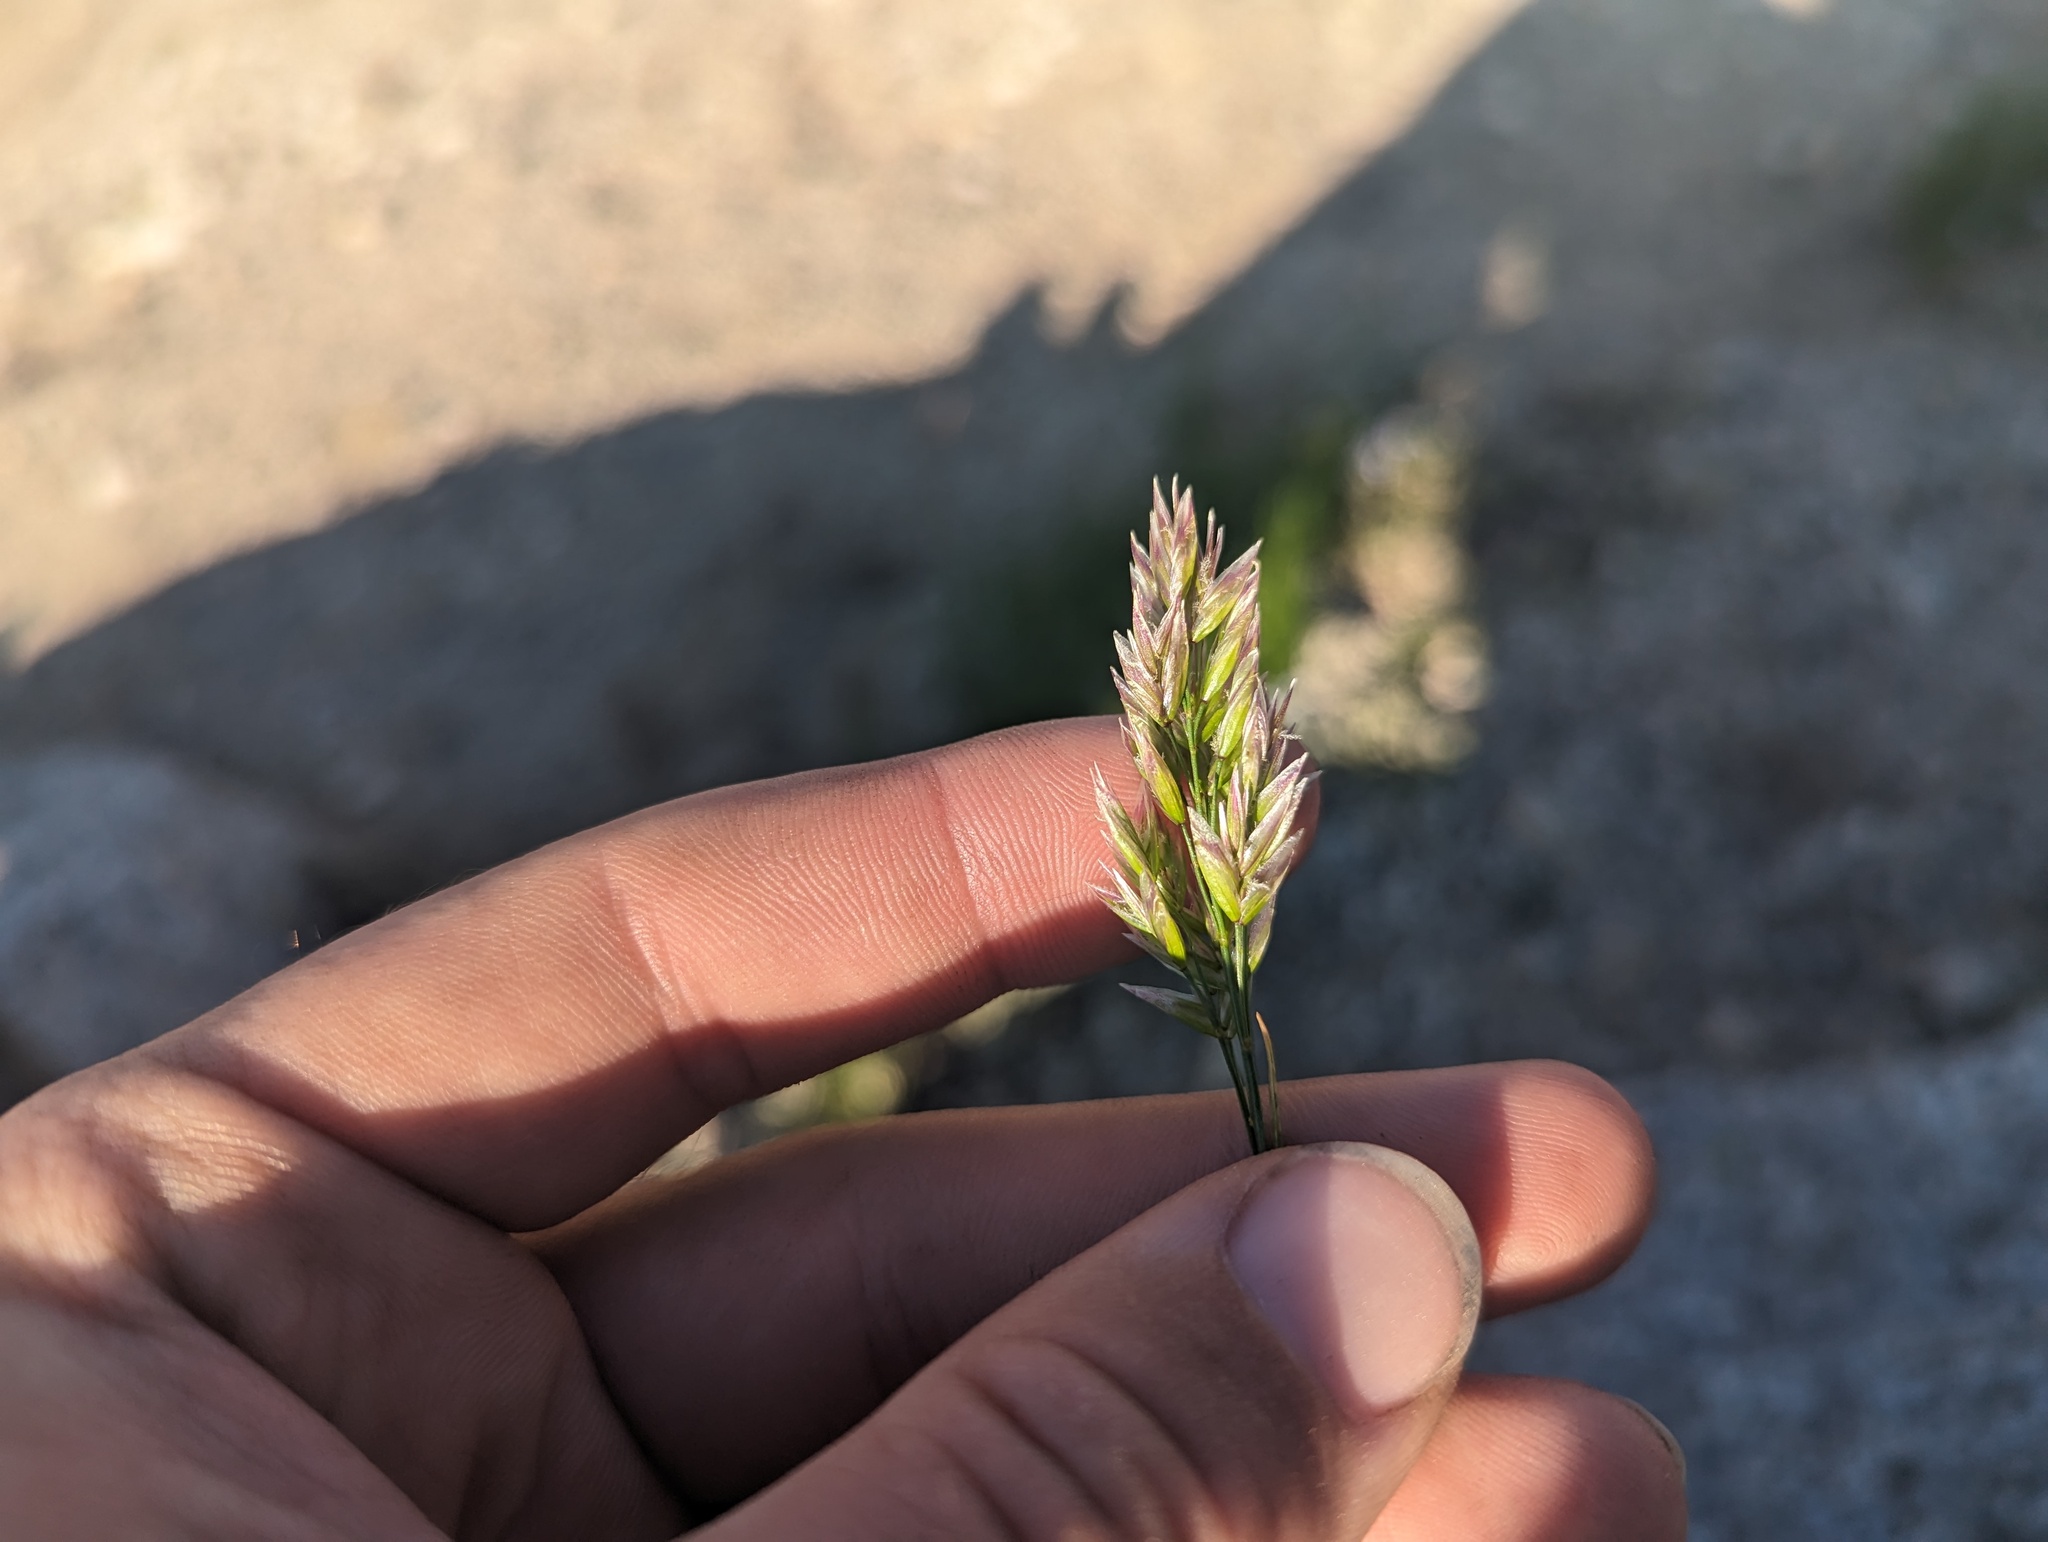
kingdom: Plantae
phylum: Tracheophyta
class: Liliopsida
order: Poales
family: Poaceae
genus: Poa
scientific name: Poa pringlei
